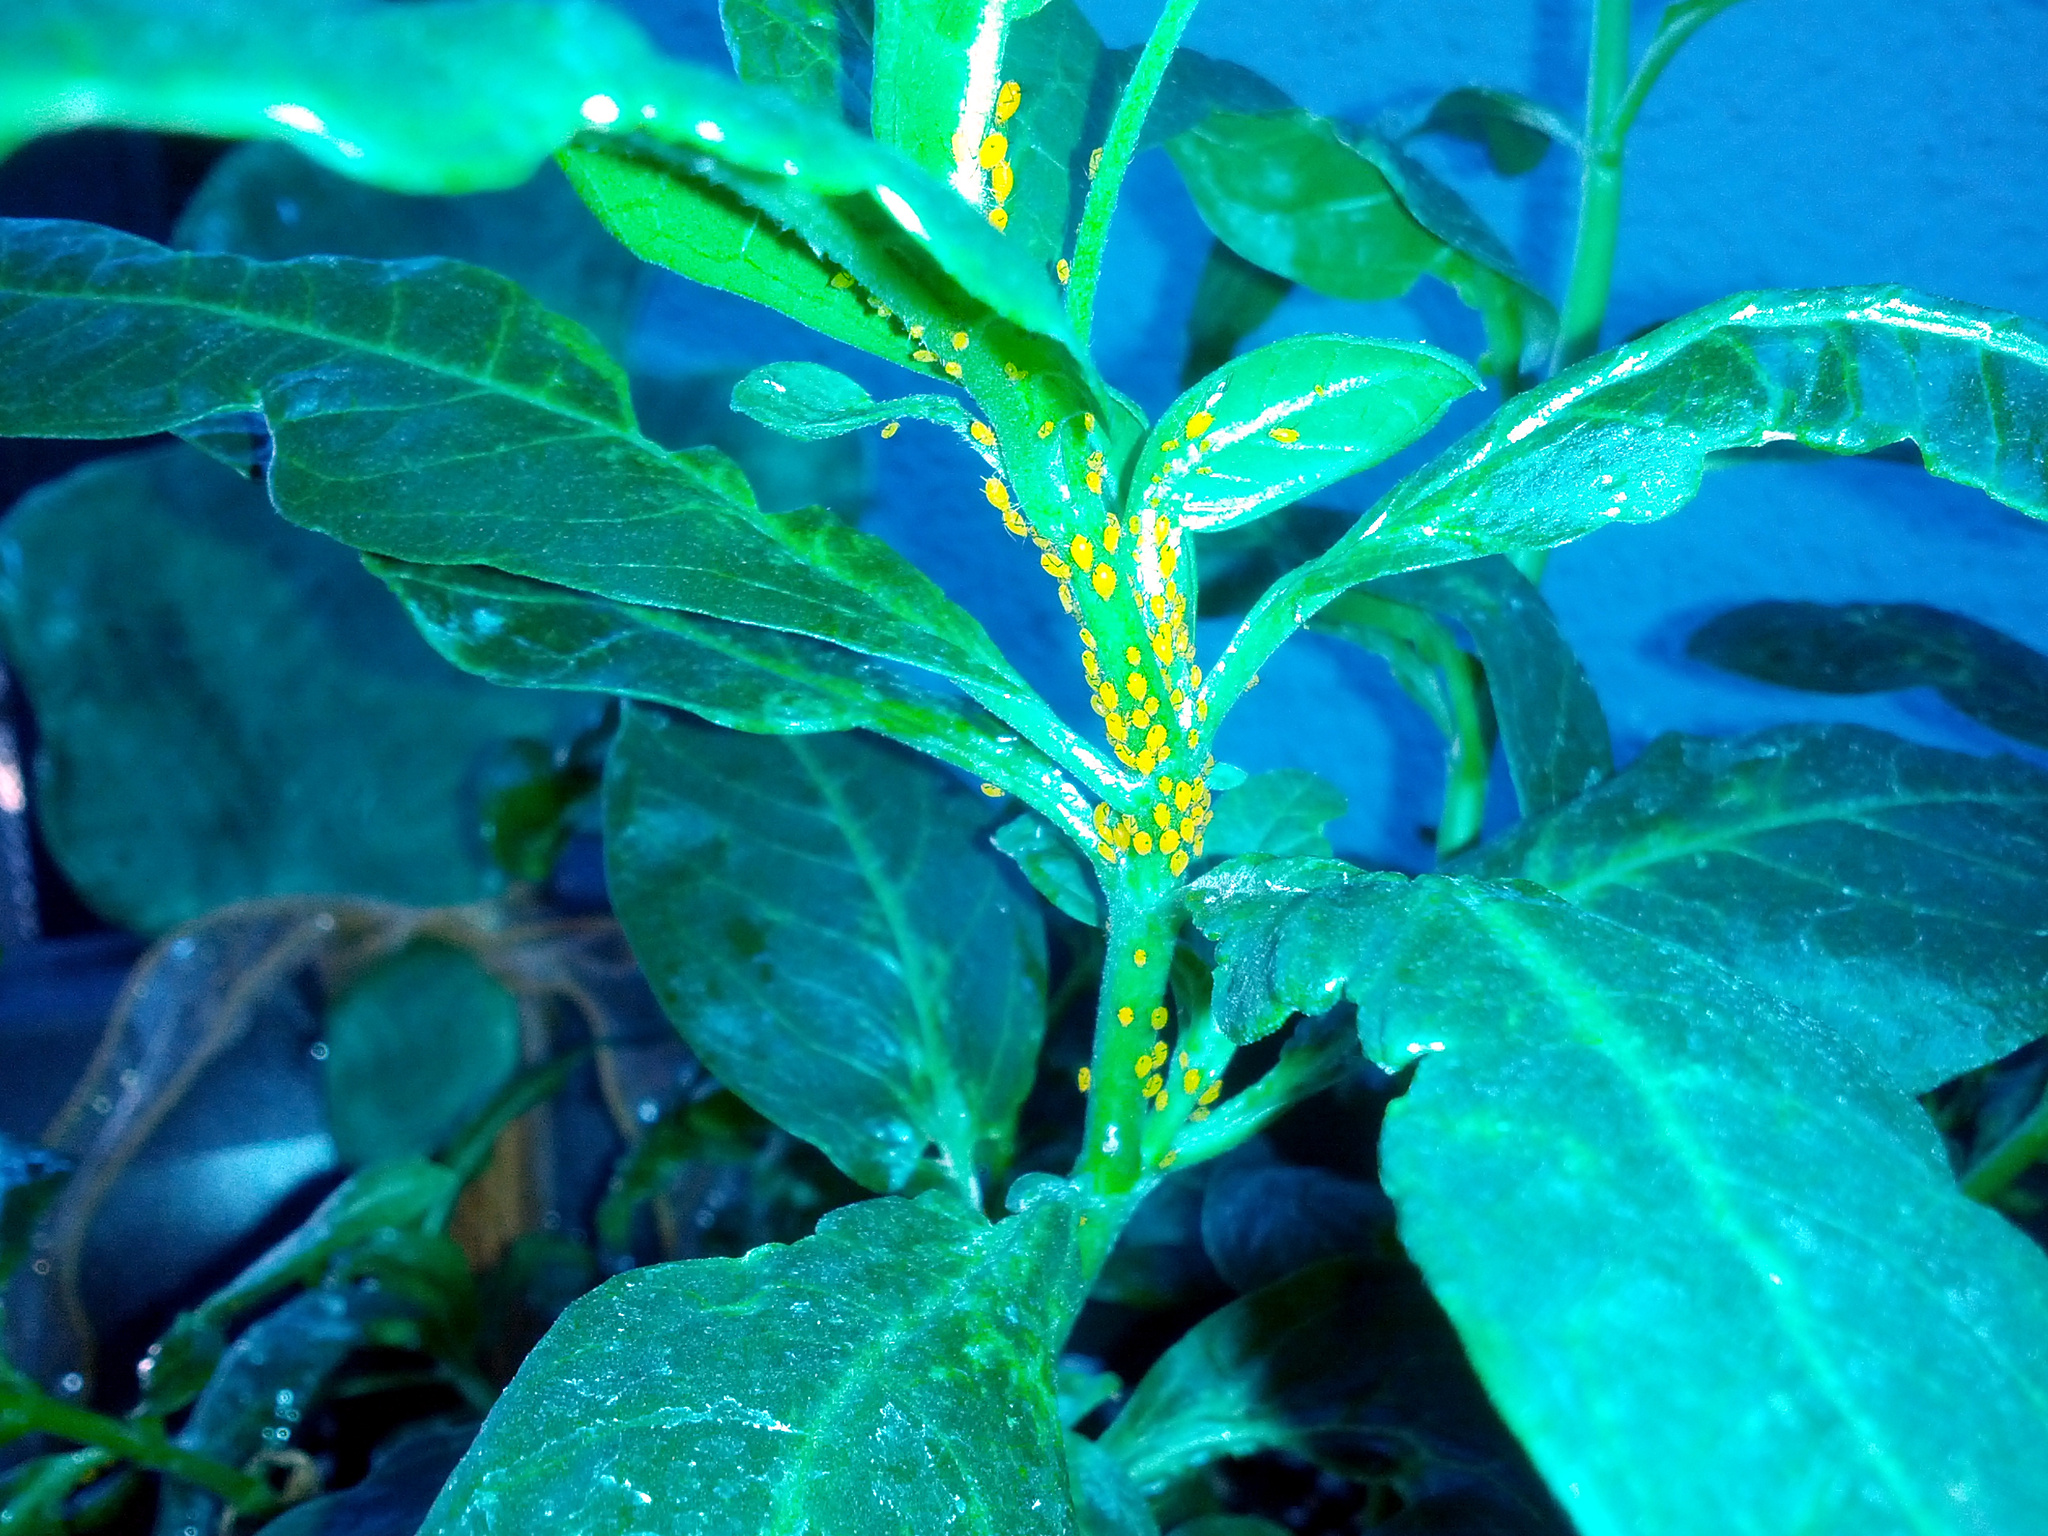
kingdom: Animalia
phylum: Arthropoda
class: Insecta
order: Hemiptera
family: Aphididae
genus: Aphis
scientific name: Aphis nerii
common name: Oleander aphid
